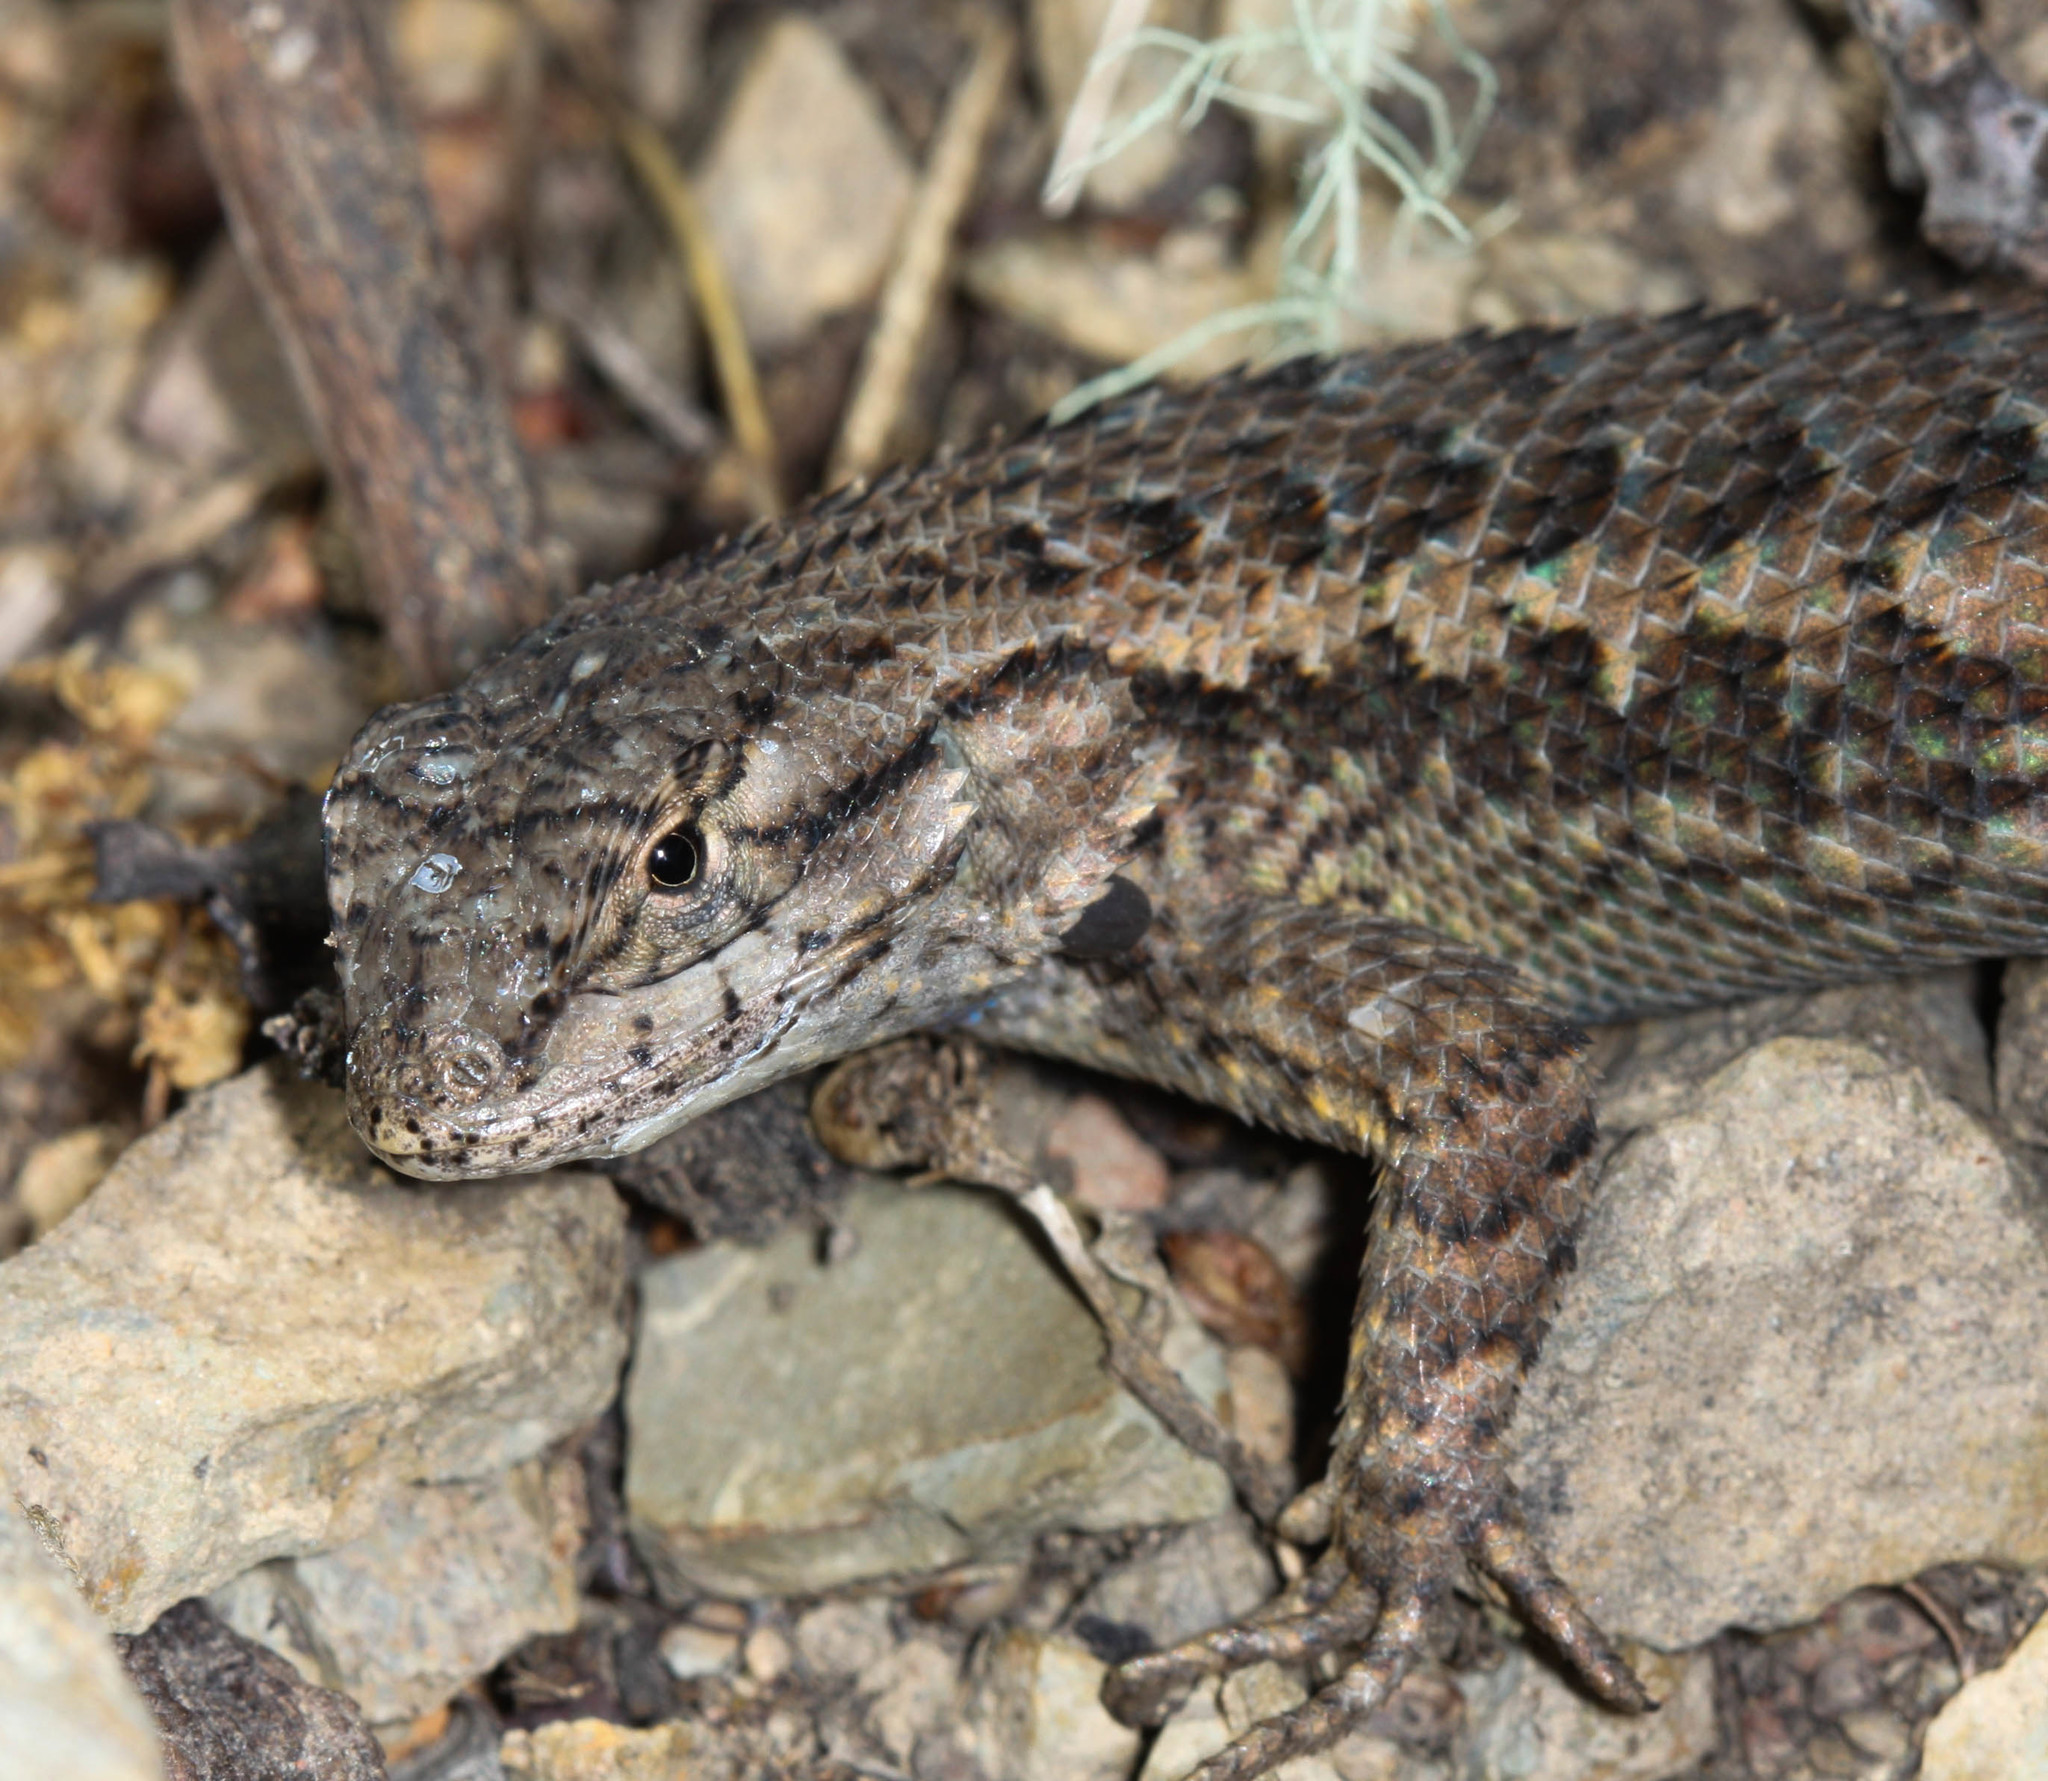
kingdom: Animalia
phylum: Chordata
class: Squamata
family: Phrynosomatidae
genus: Sceloporus
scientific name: Sceloporus occidentalis
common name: Western fence lizard
